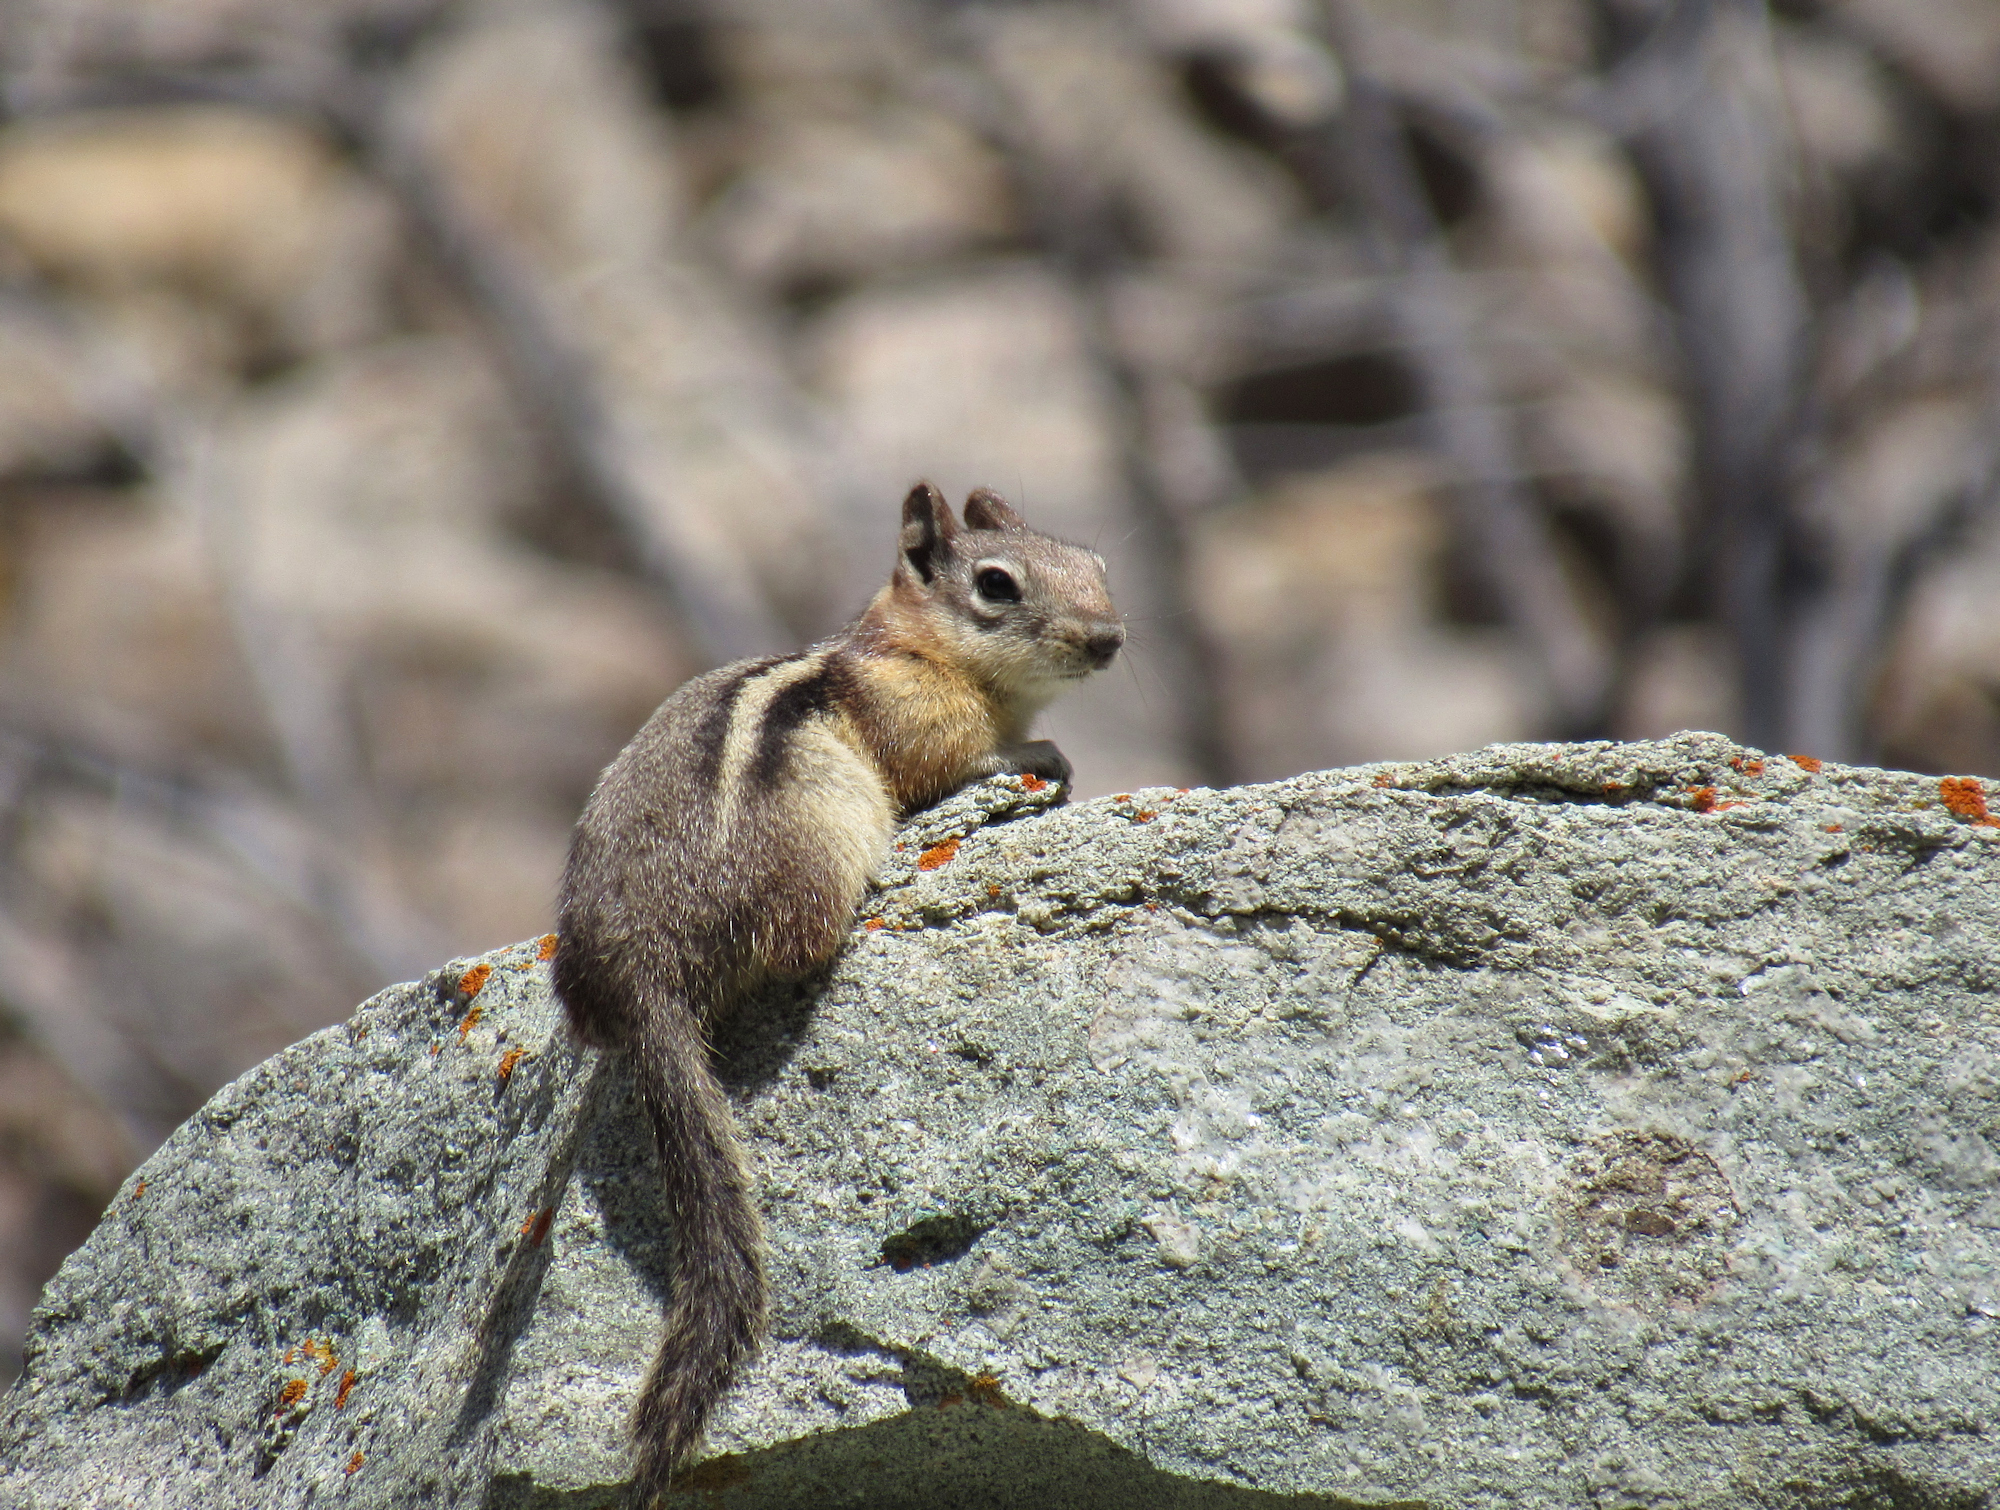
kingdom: Animalia
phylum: Chordata
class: Mammalia
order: Rodentia
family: Sciuridae
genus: Callospermophilus
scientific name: Callospermophilus lateralis
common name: Golden-mantled ground squirrel
